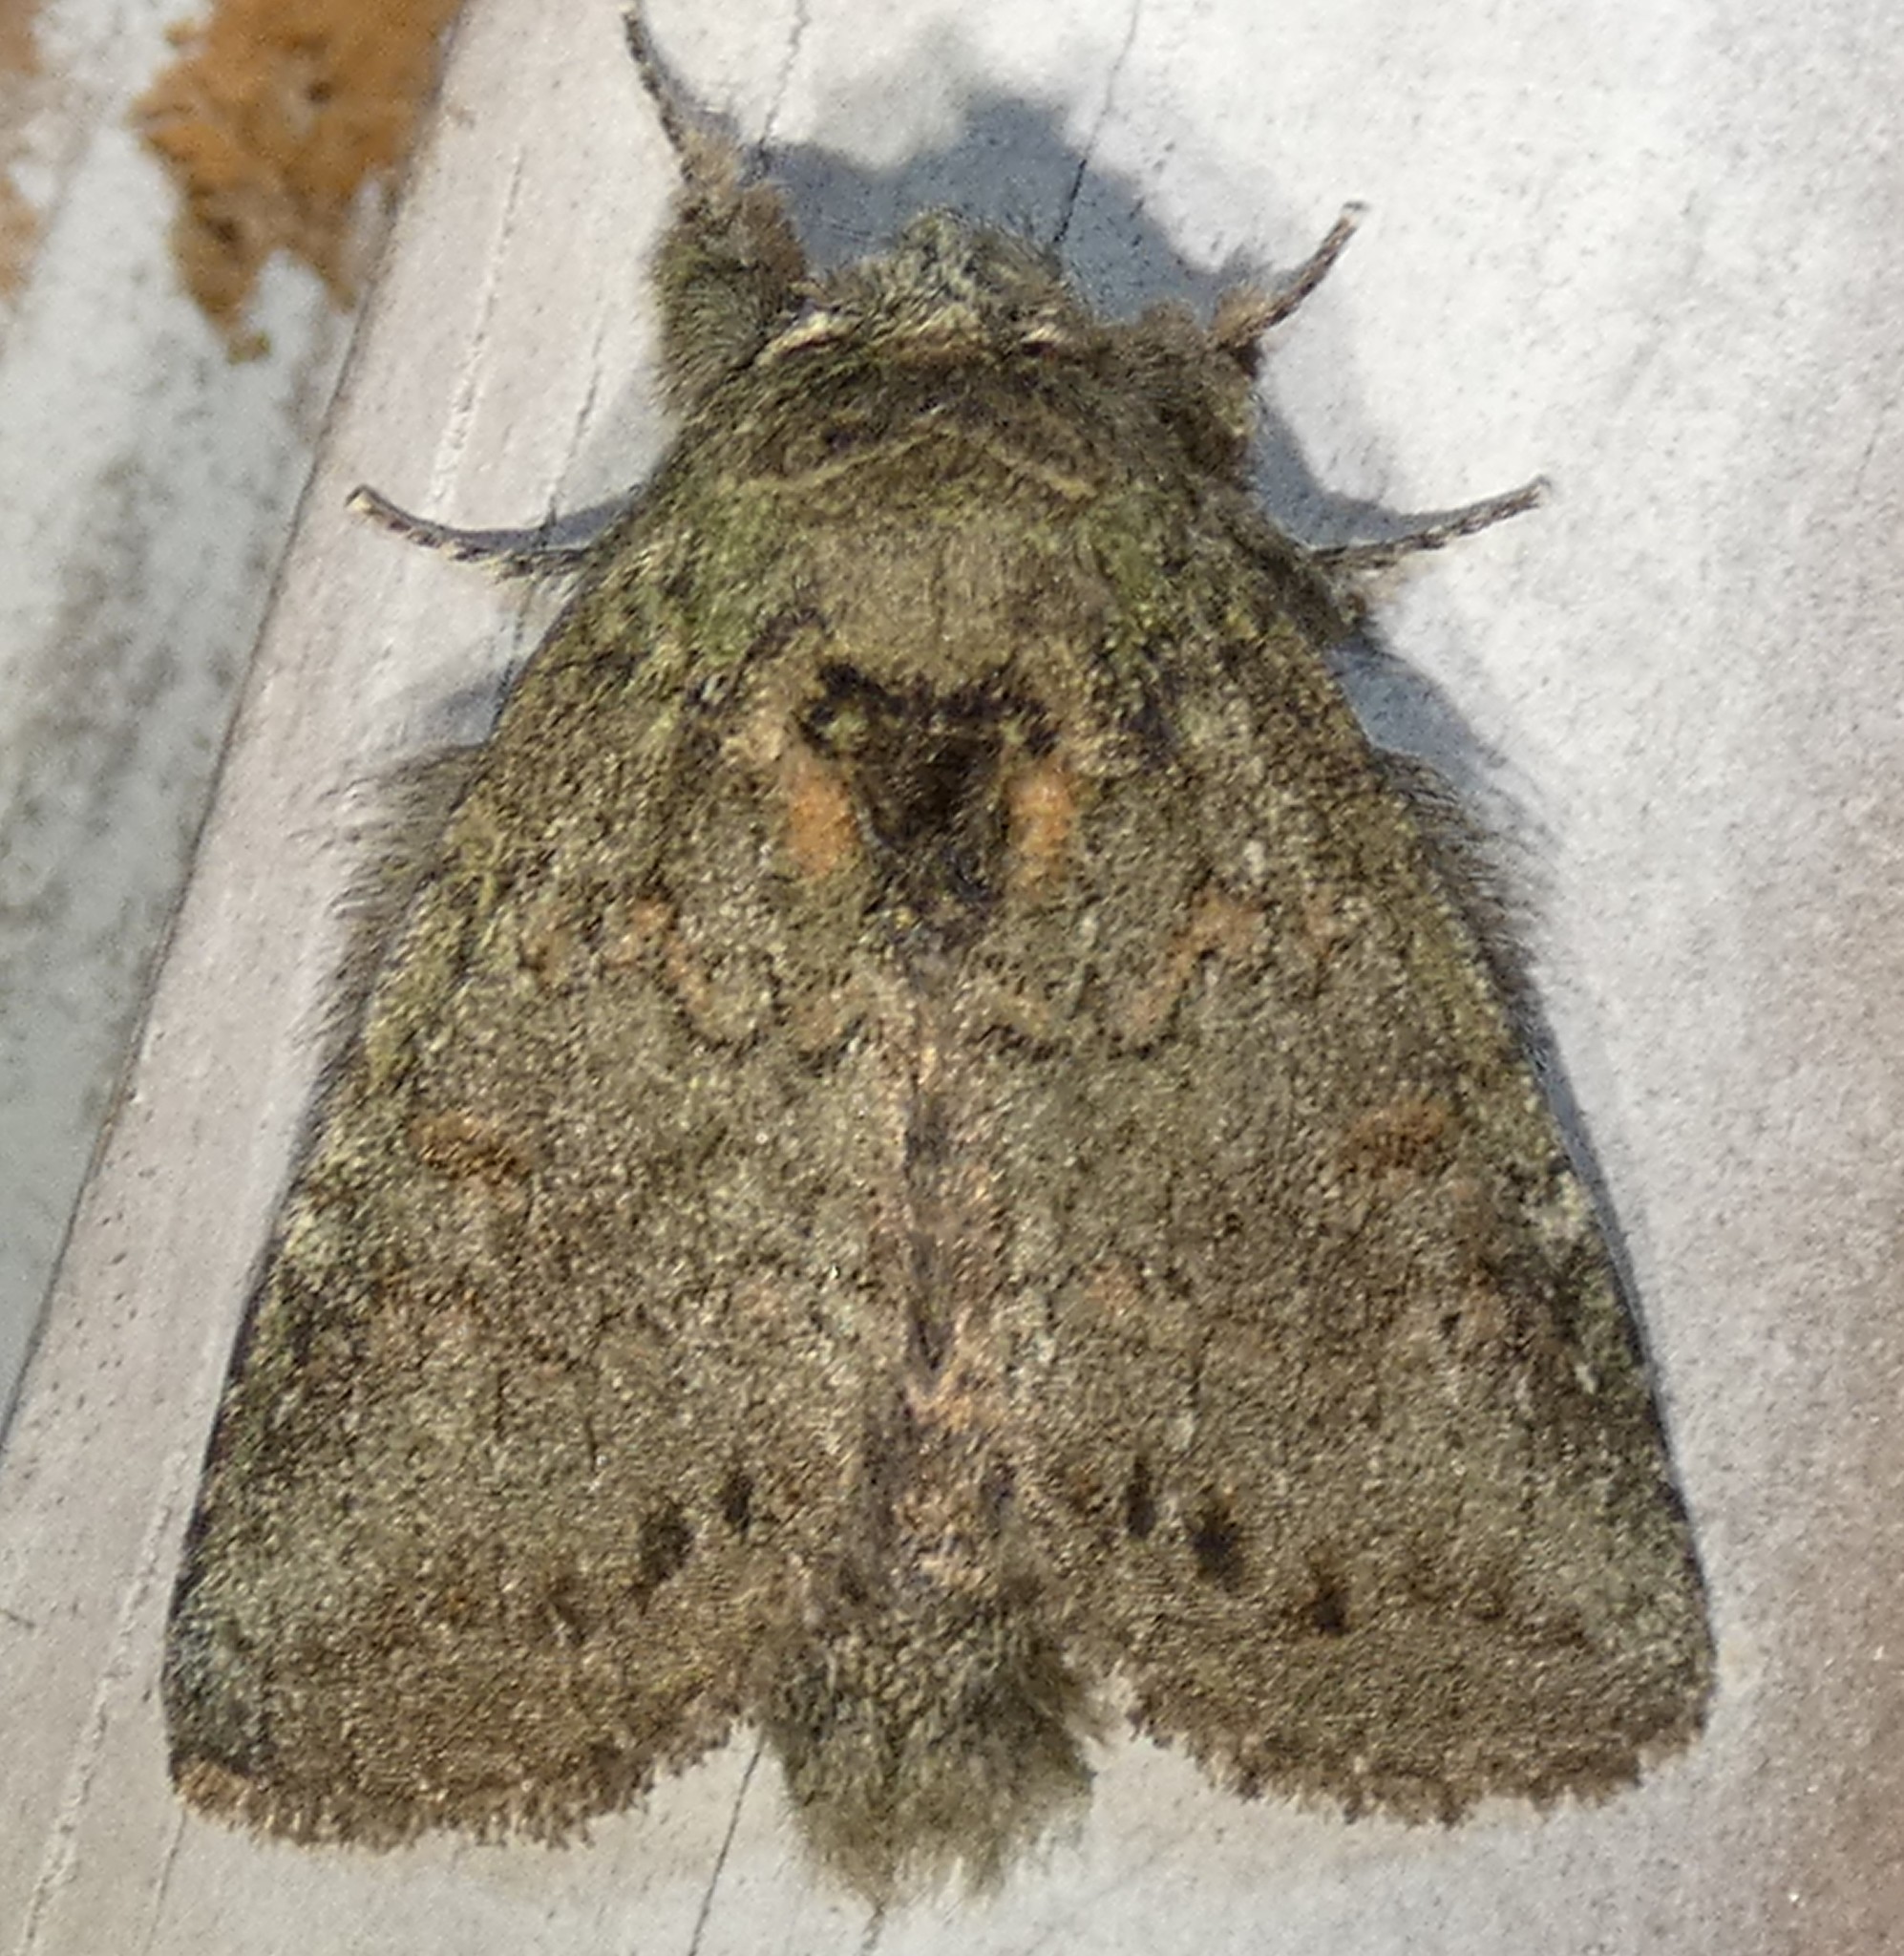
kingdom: Animalia
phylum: Arthropoda
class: Insecta
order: Lepidoptera
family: Notodontidae
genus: Disphragis
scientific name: Disphragis Cecrita guttivitta
